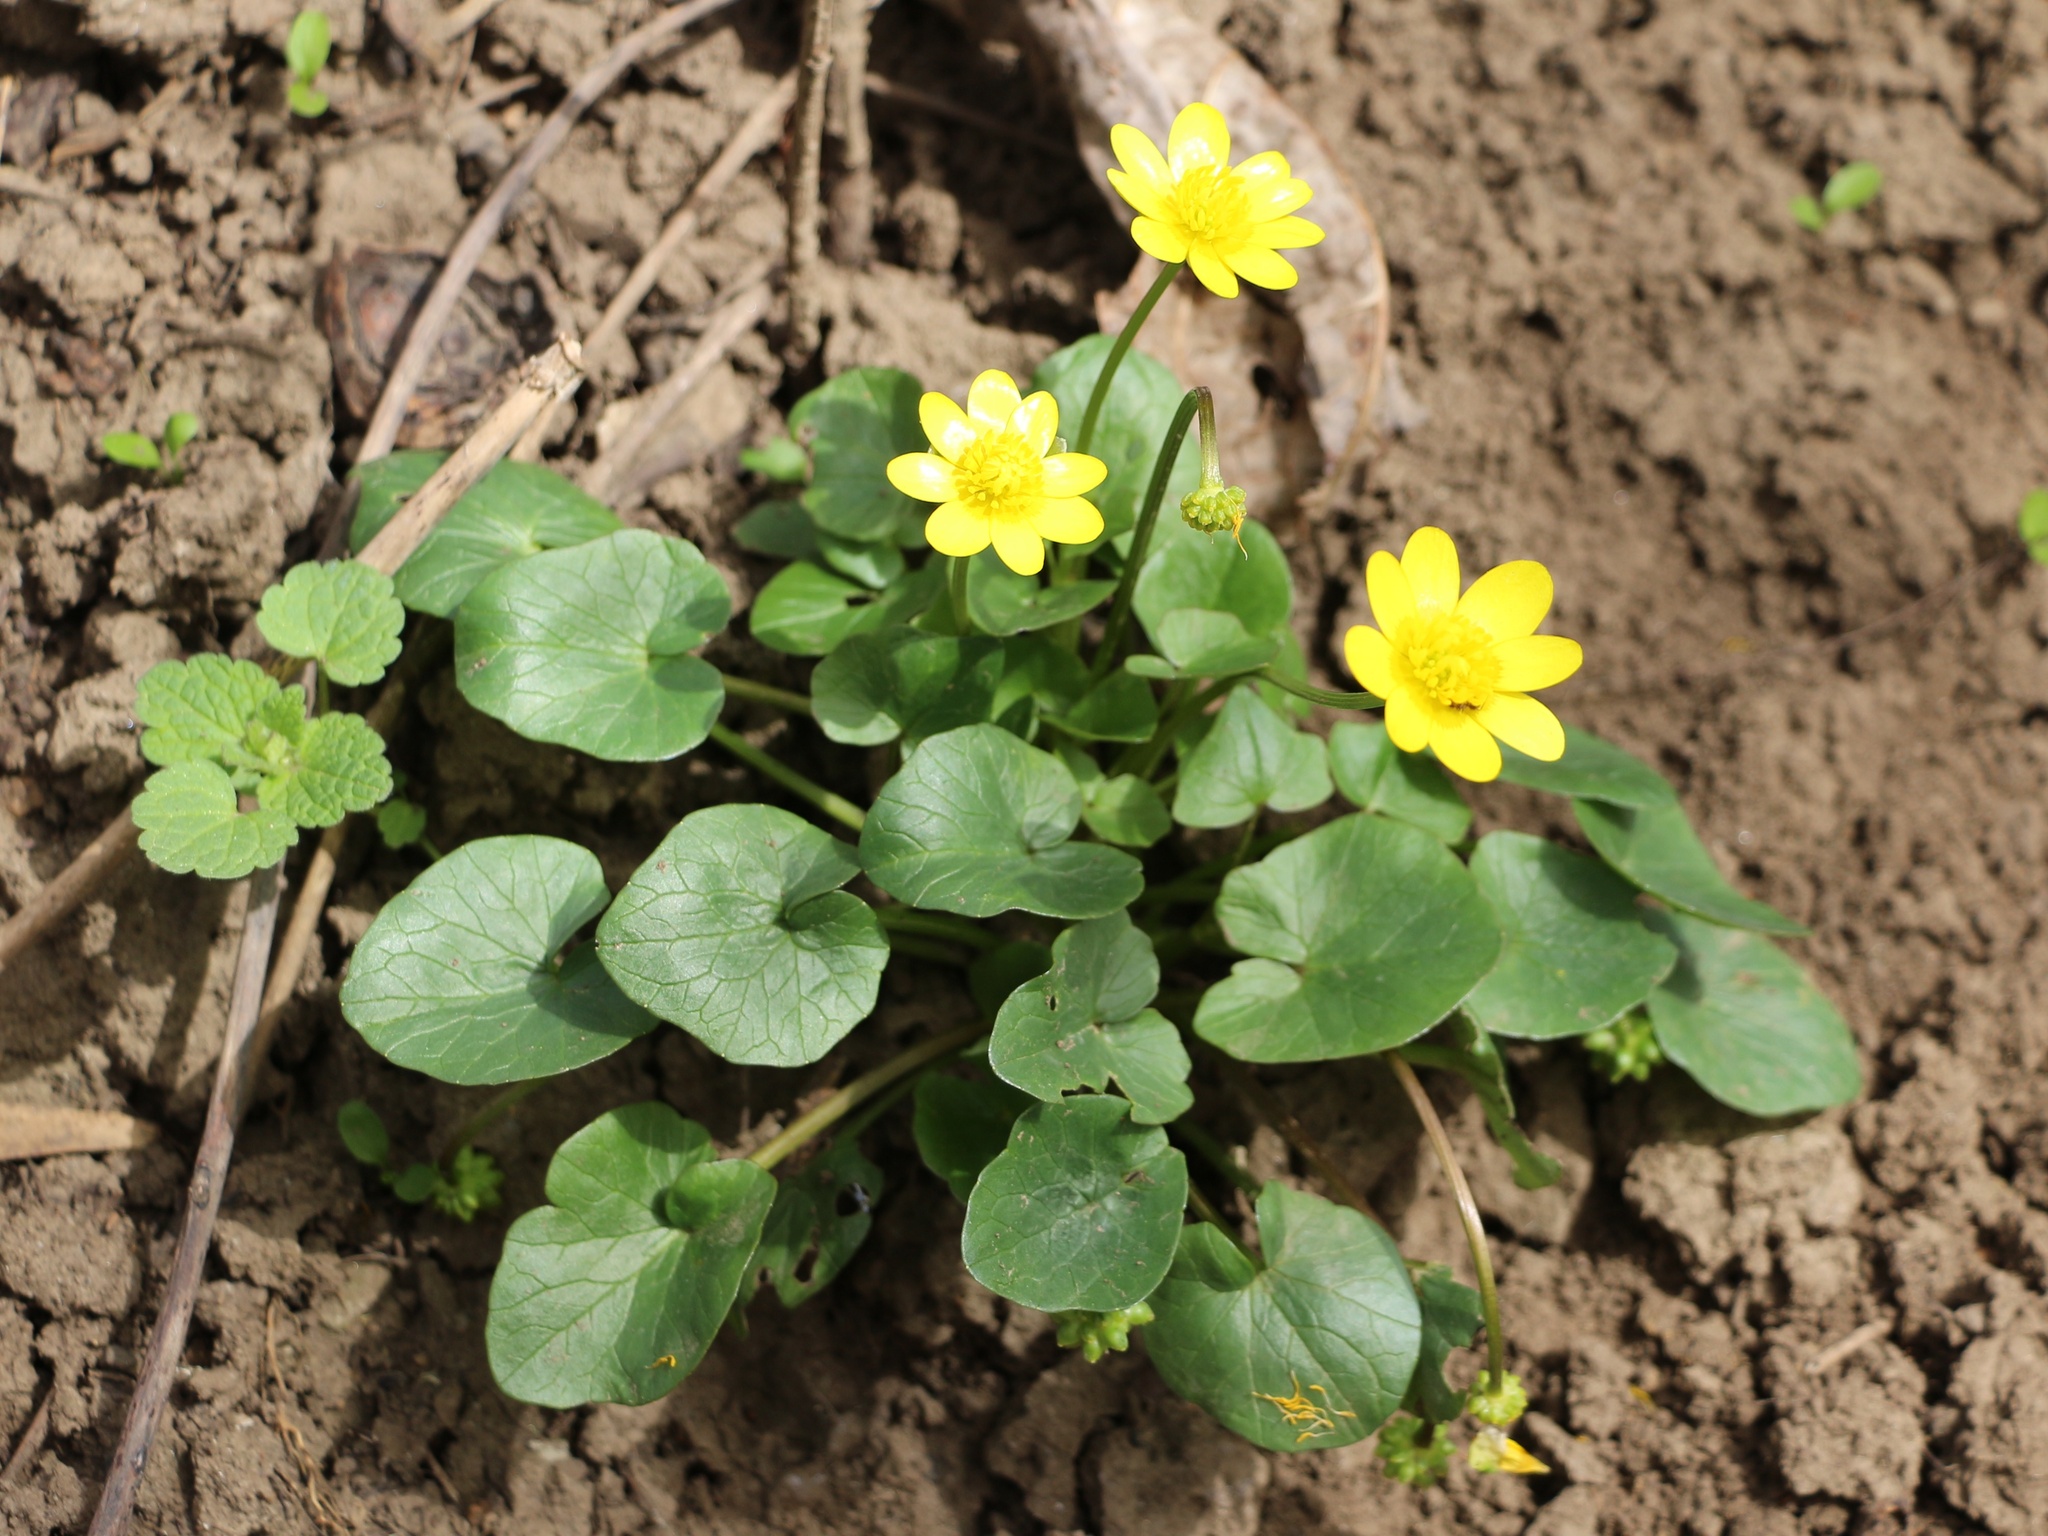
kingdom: Plantae
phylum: Tracheophyta
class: Magnoliopsida
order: Ranunculales
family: Ranunculaceae
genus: Ficaria
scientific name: Ficaria verna
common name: Lesser celandine
